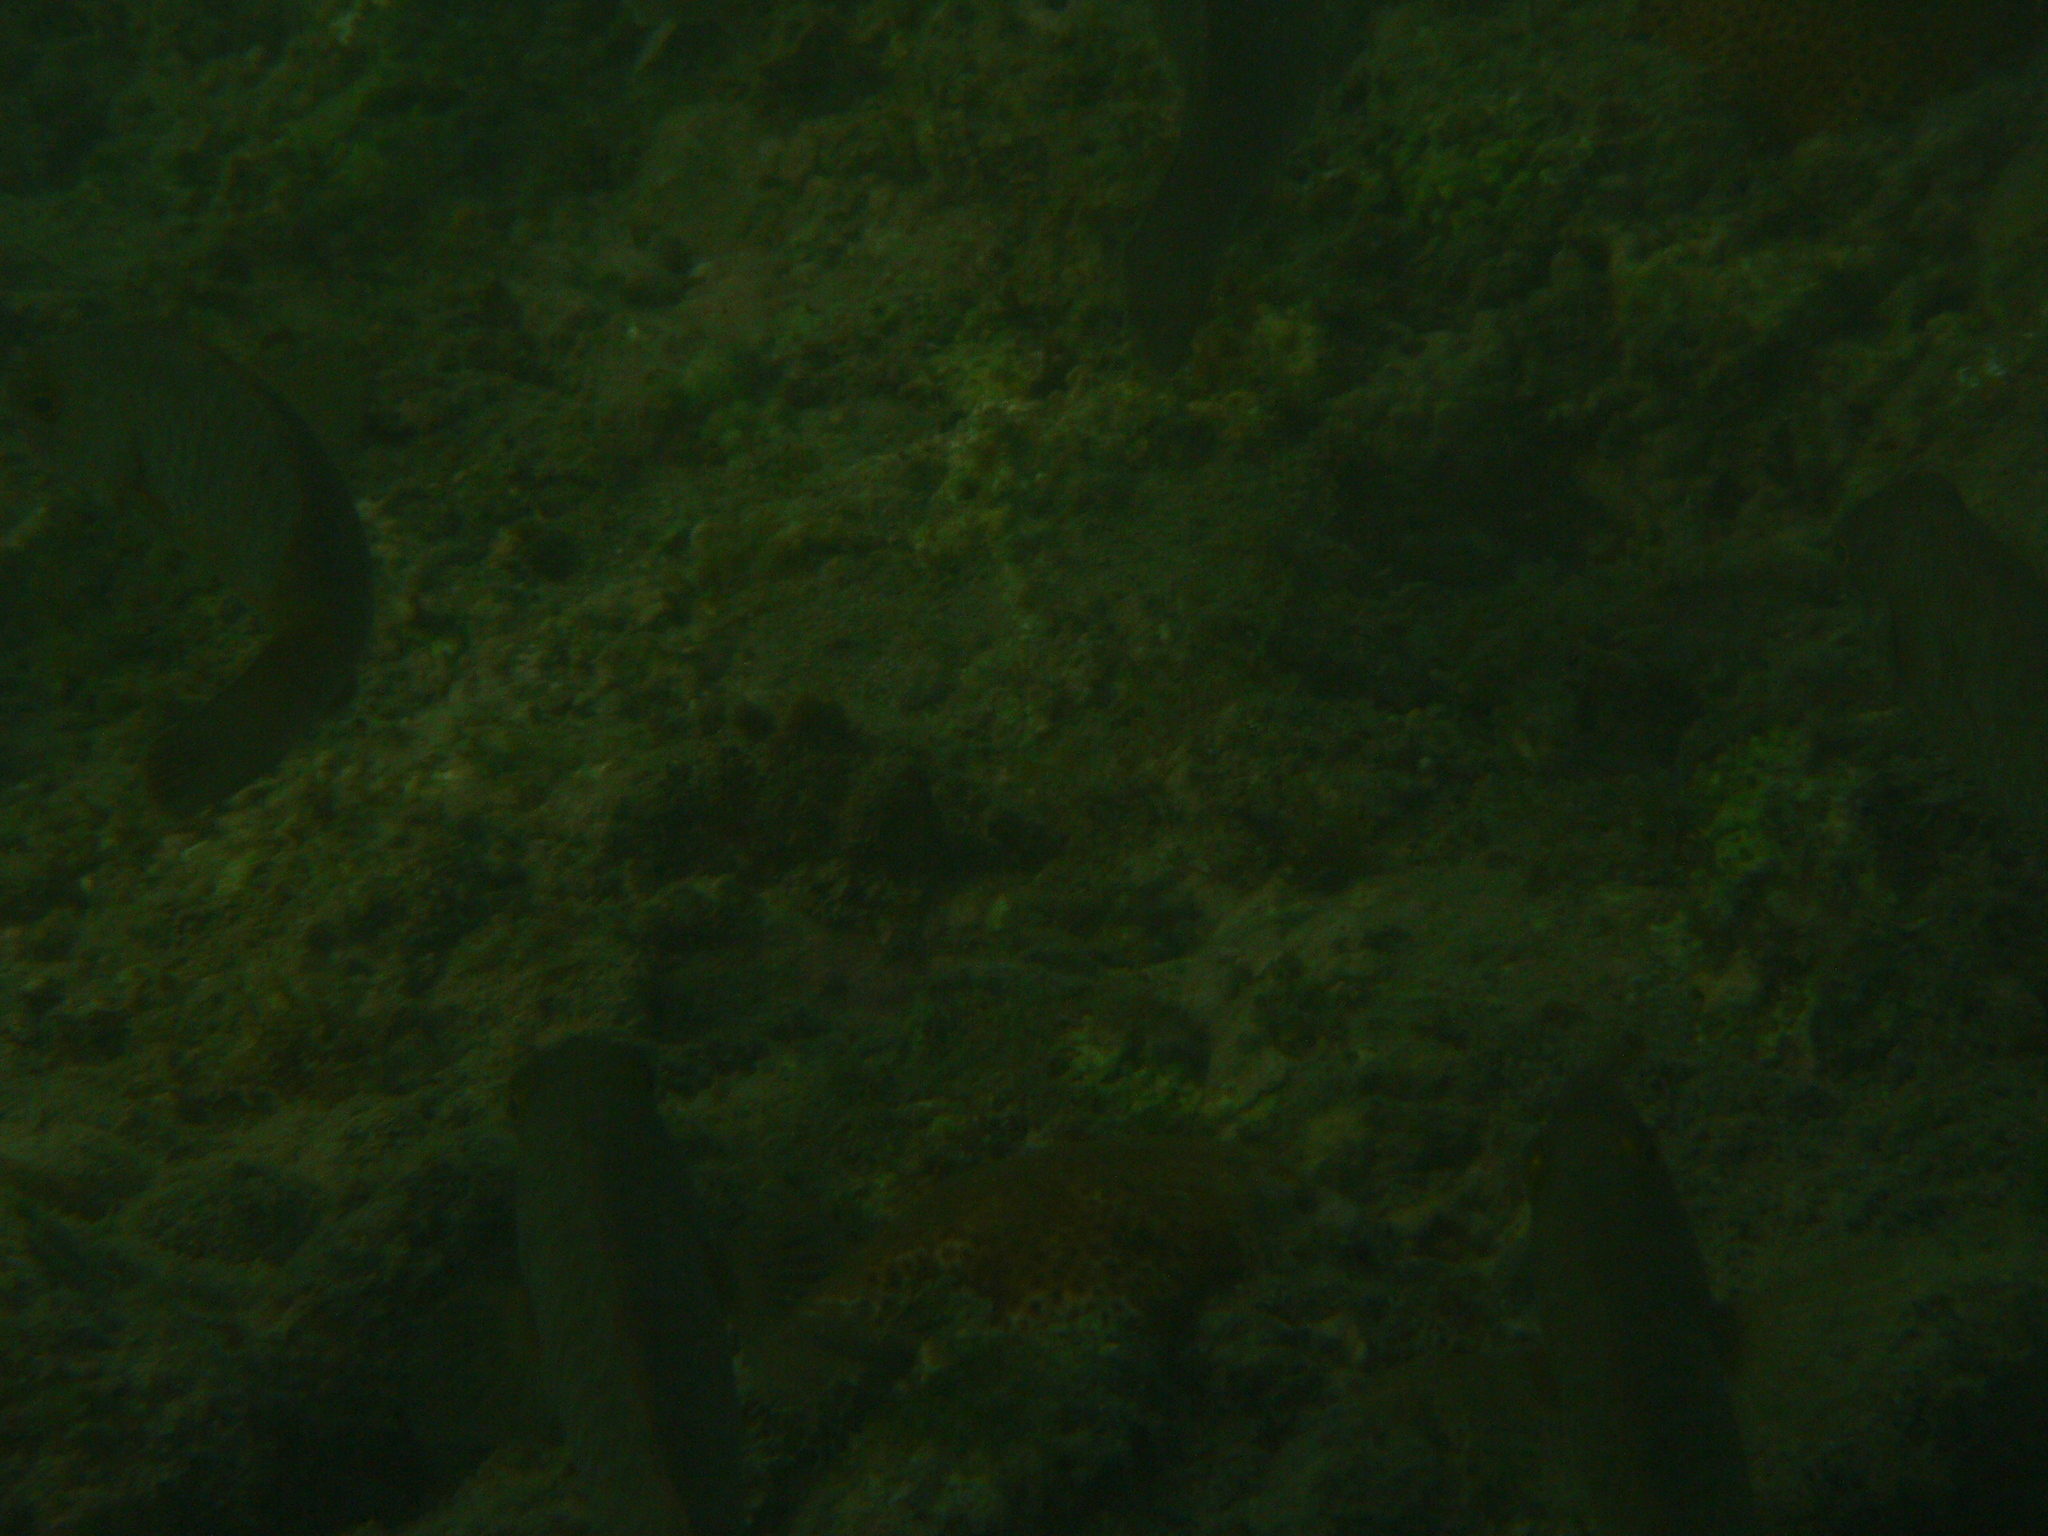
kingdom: Animalia
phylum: Chordata
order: Perciformes
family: Scaridae
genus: Sparisoma
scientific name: Sparisoma cretense
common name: Parrotfish
